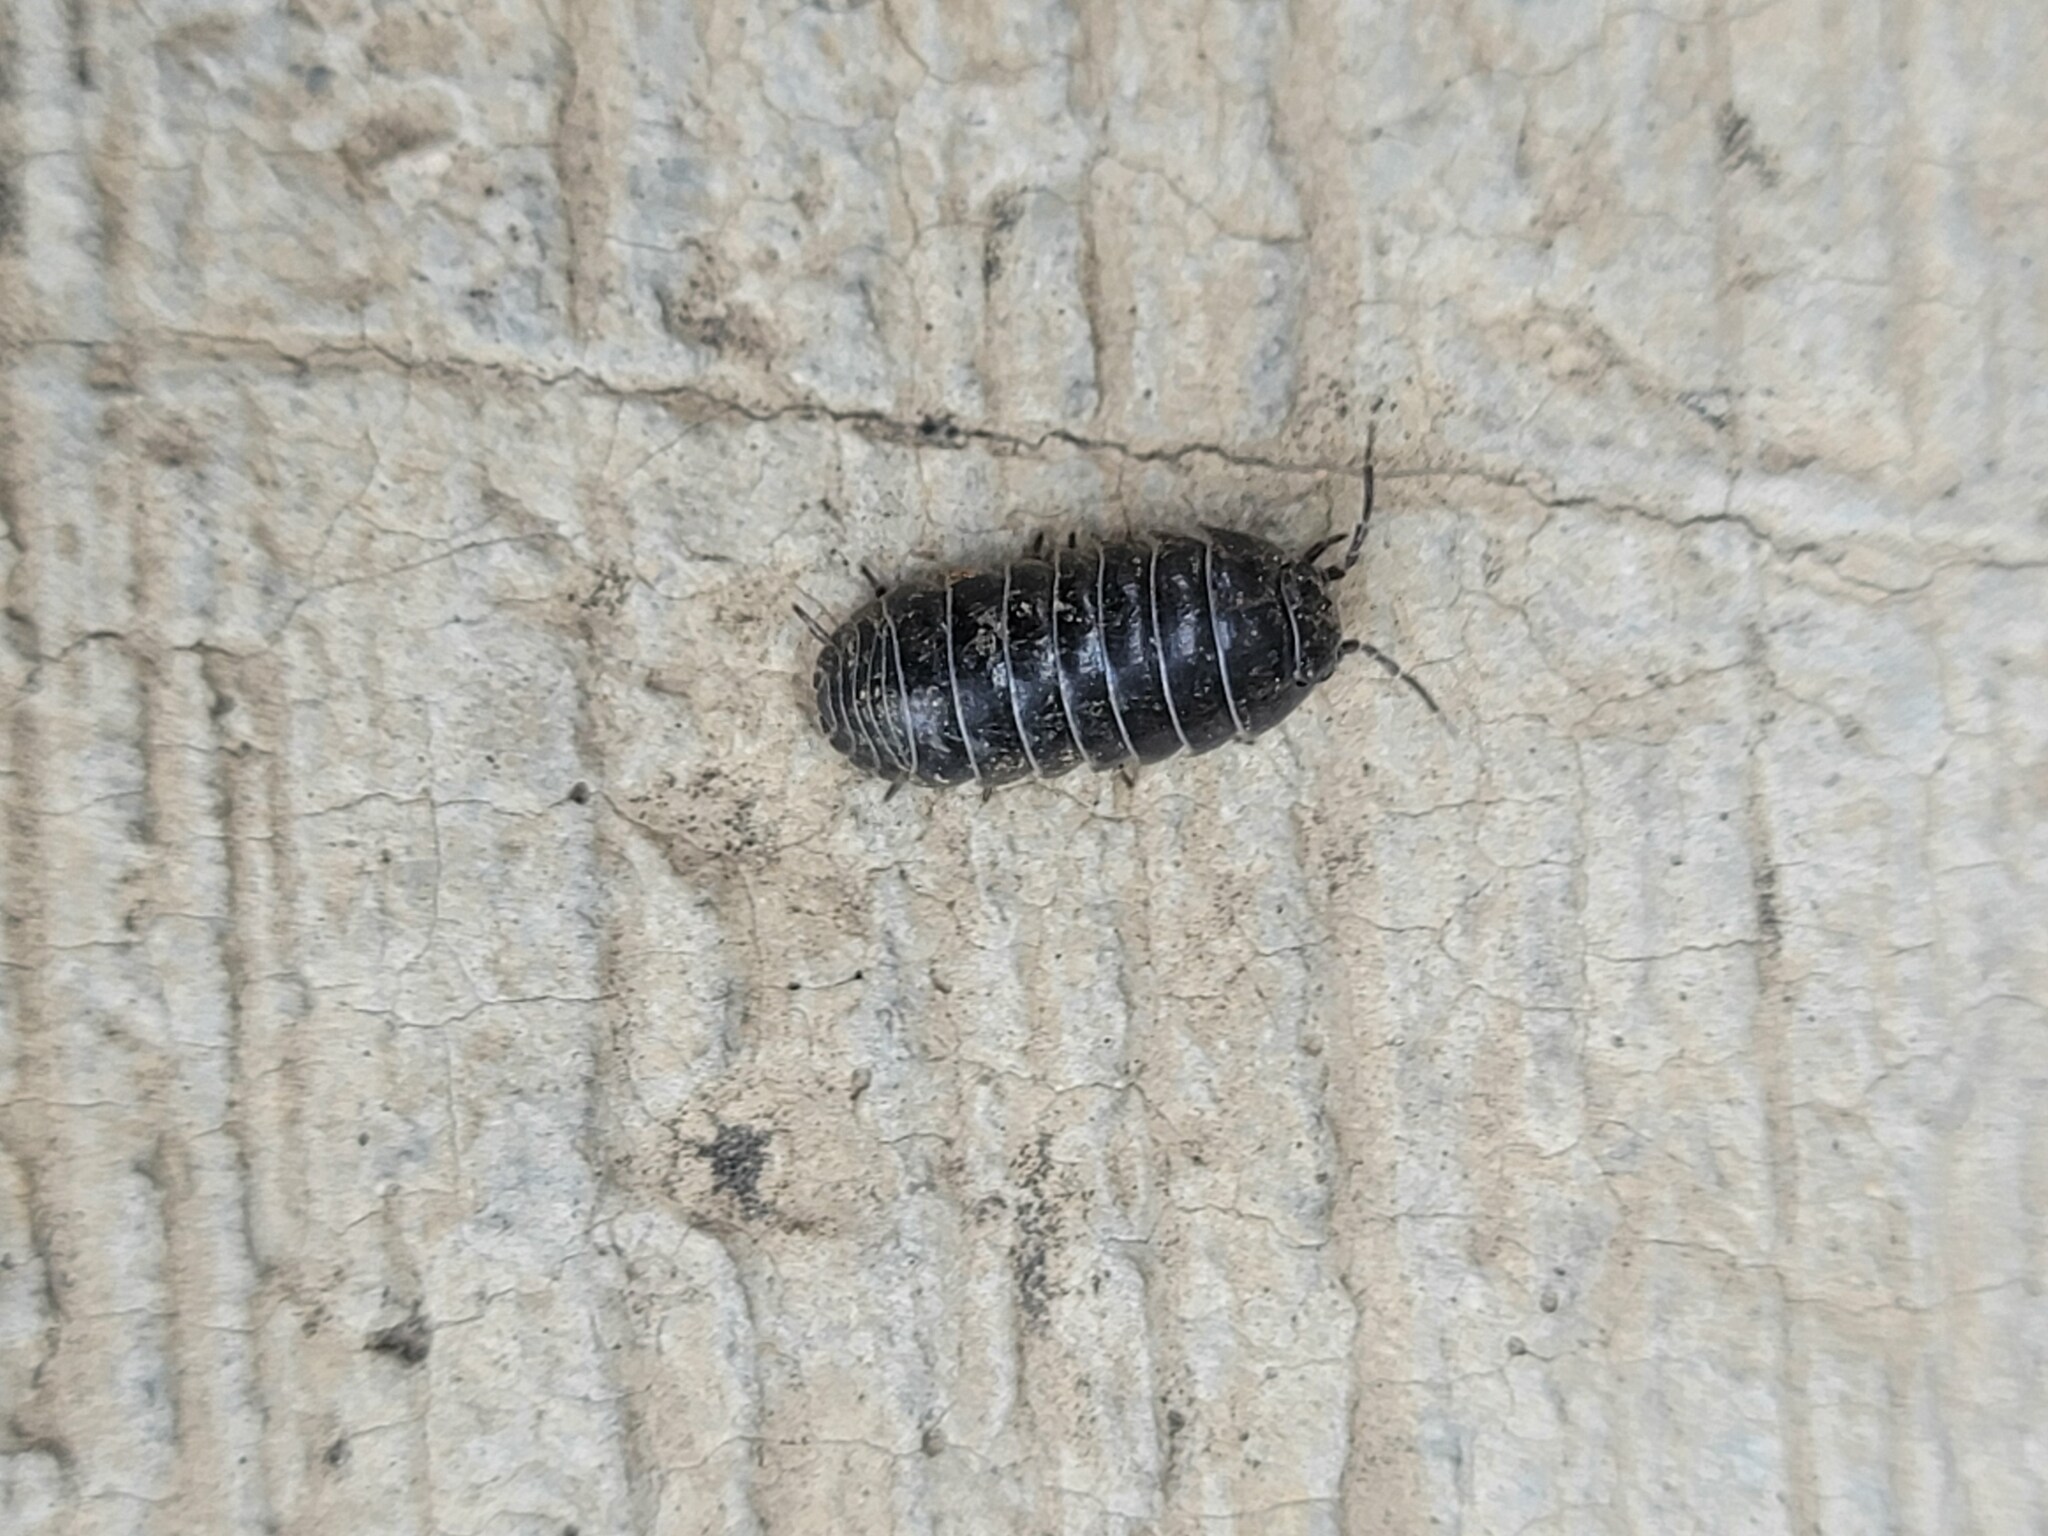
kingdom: Animalia
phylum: Arthropoda
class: Malacostraca
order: Isopoda
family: Armadillidiidae
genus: Armadillidium
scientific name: Armadillidium vulgare
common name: Common pill woodlouse
